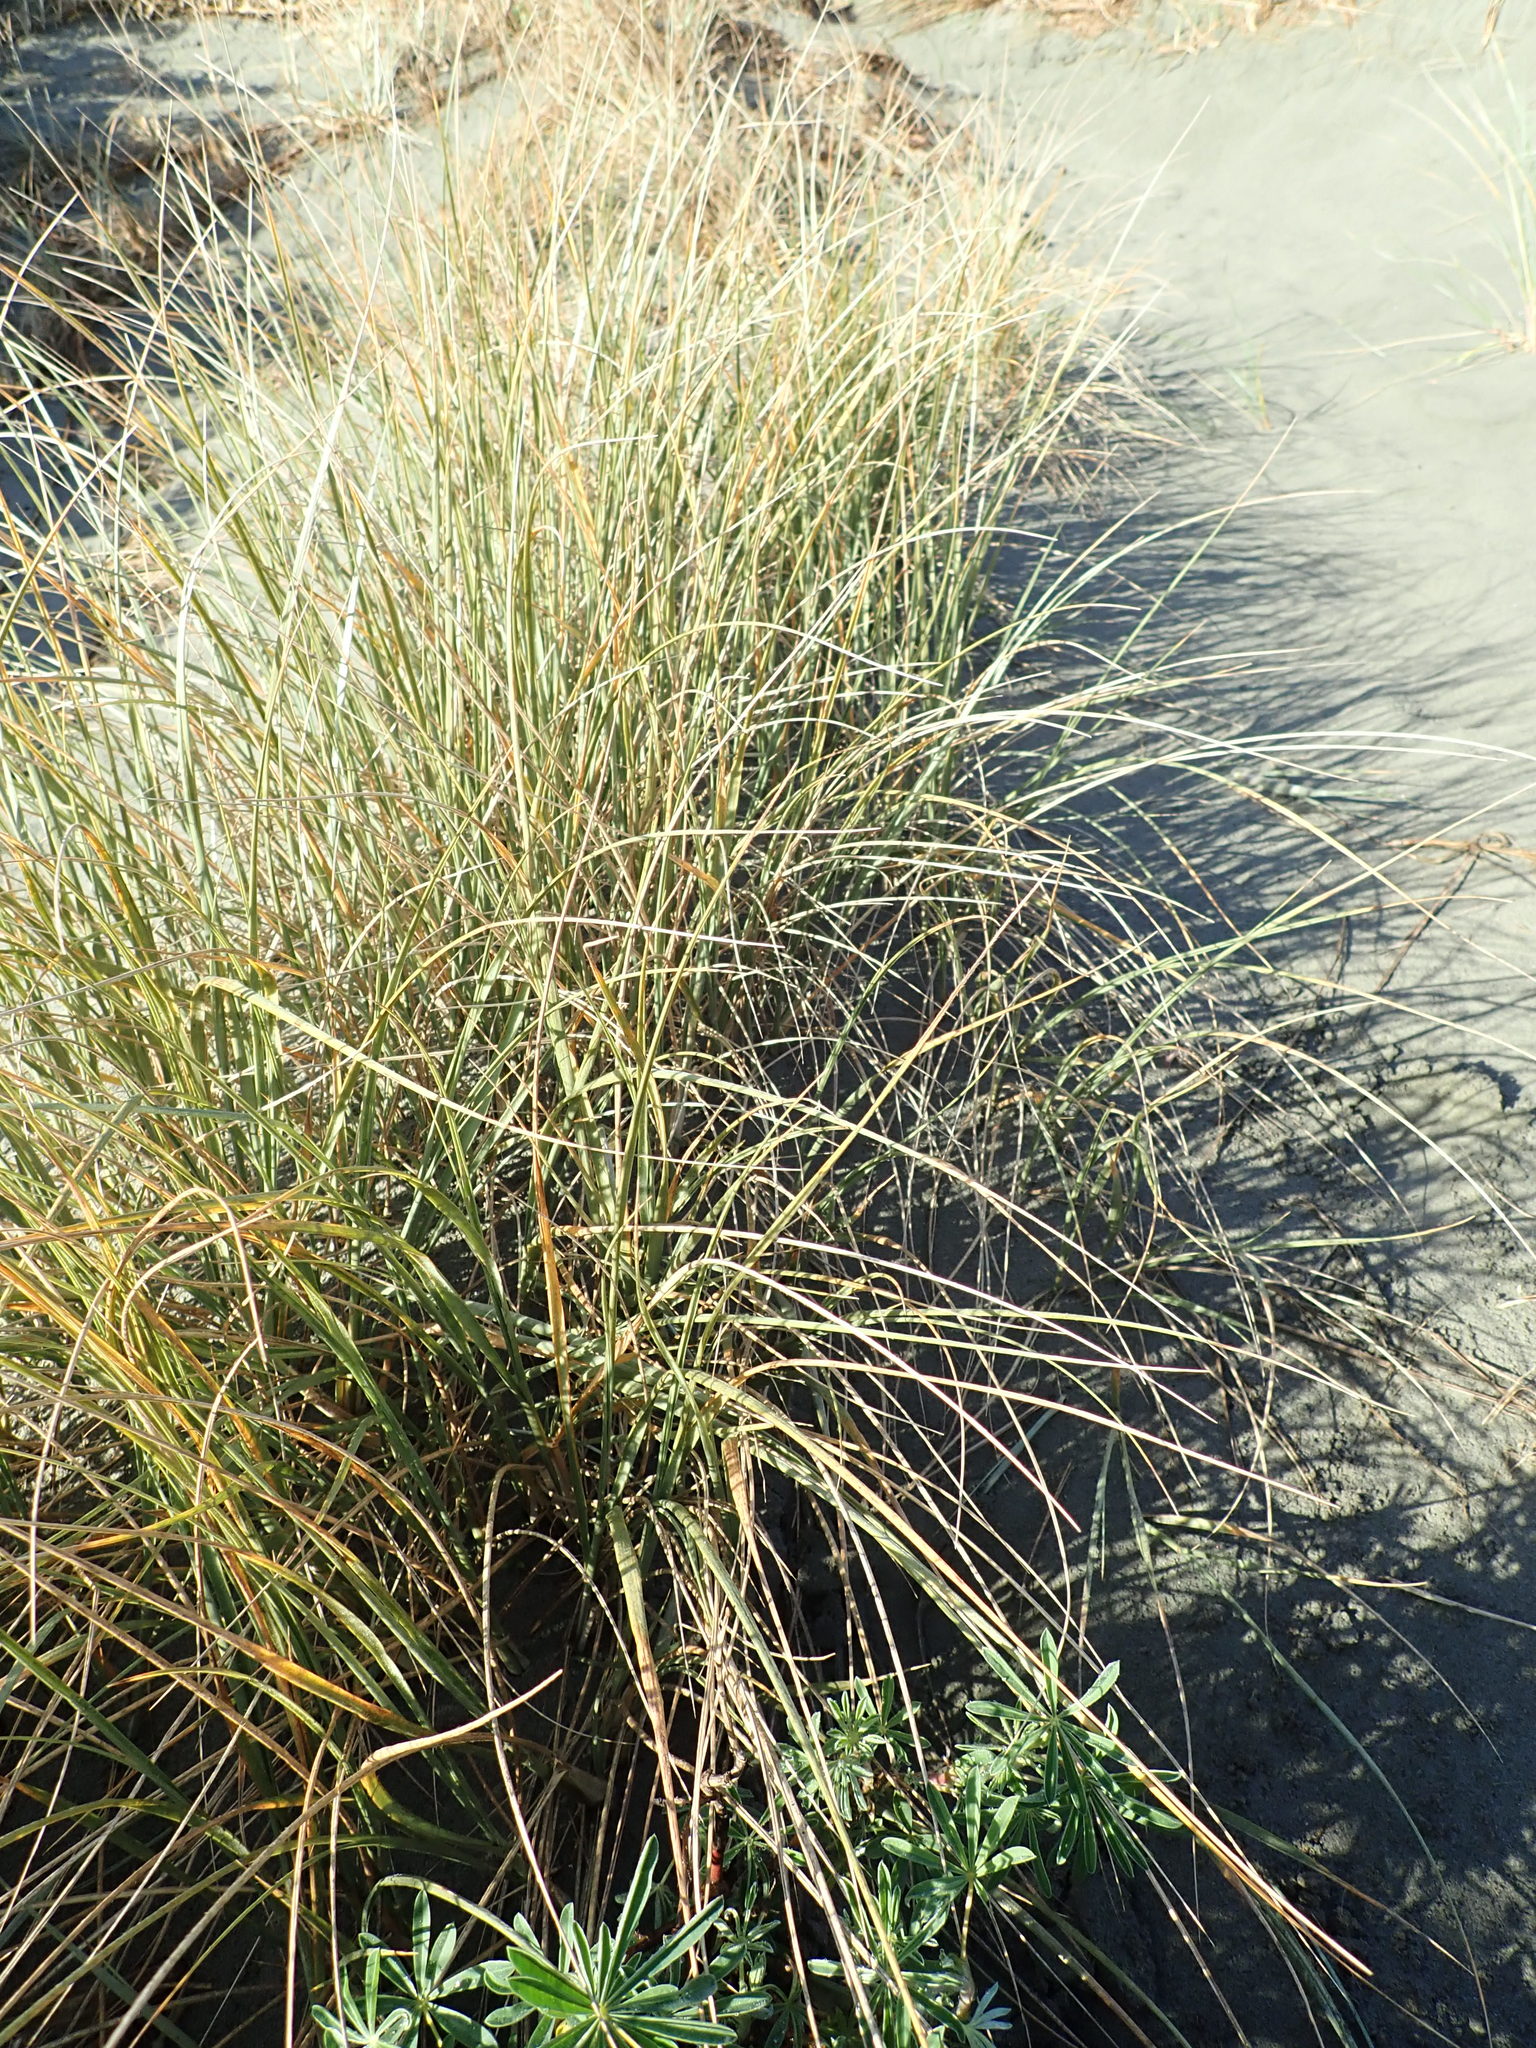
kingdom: Plantae
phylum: Tracheophyta
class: Liliopsida
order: Poales
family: Poaceae
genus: Spinifex
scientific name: Spinifex sericeus
